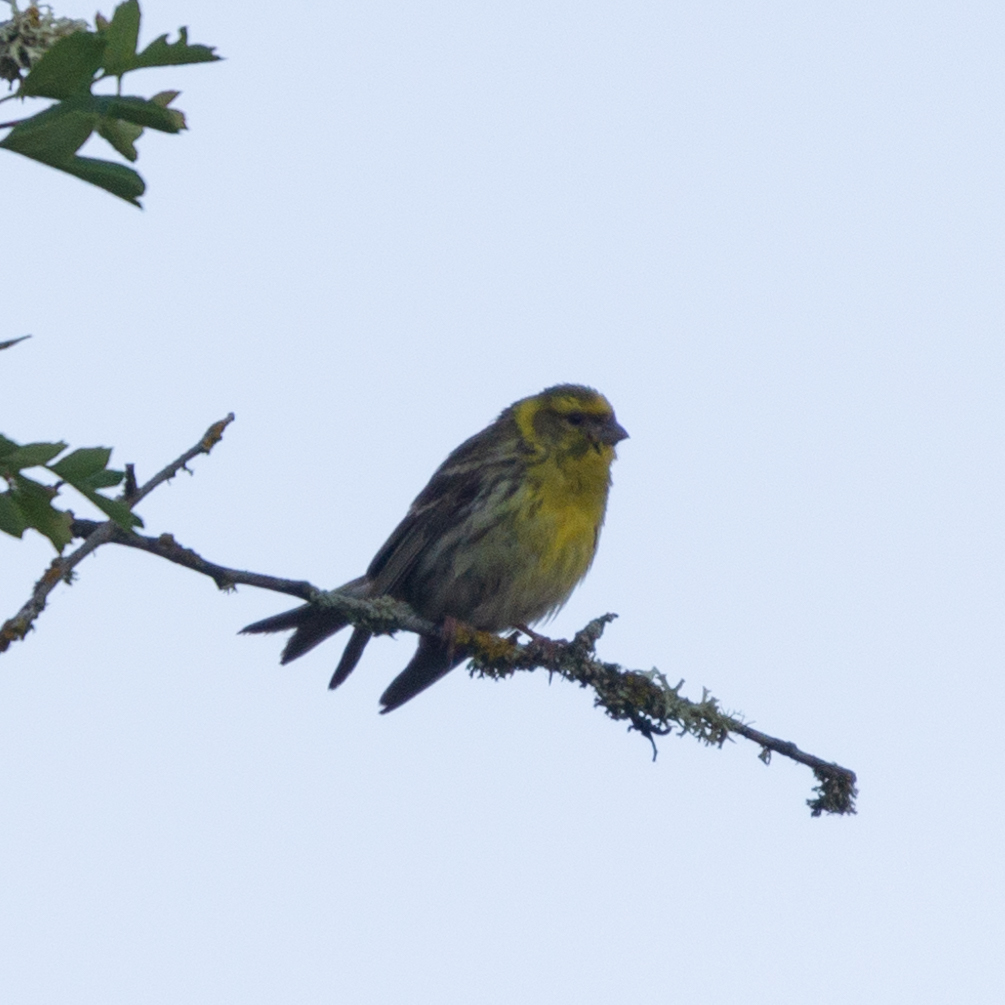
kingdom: Animalia
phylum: Chordata
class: Aves
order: Passeriformes
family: Fringillidae
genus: Serinus
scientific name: Serinus serinus
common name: European serin
